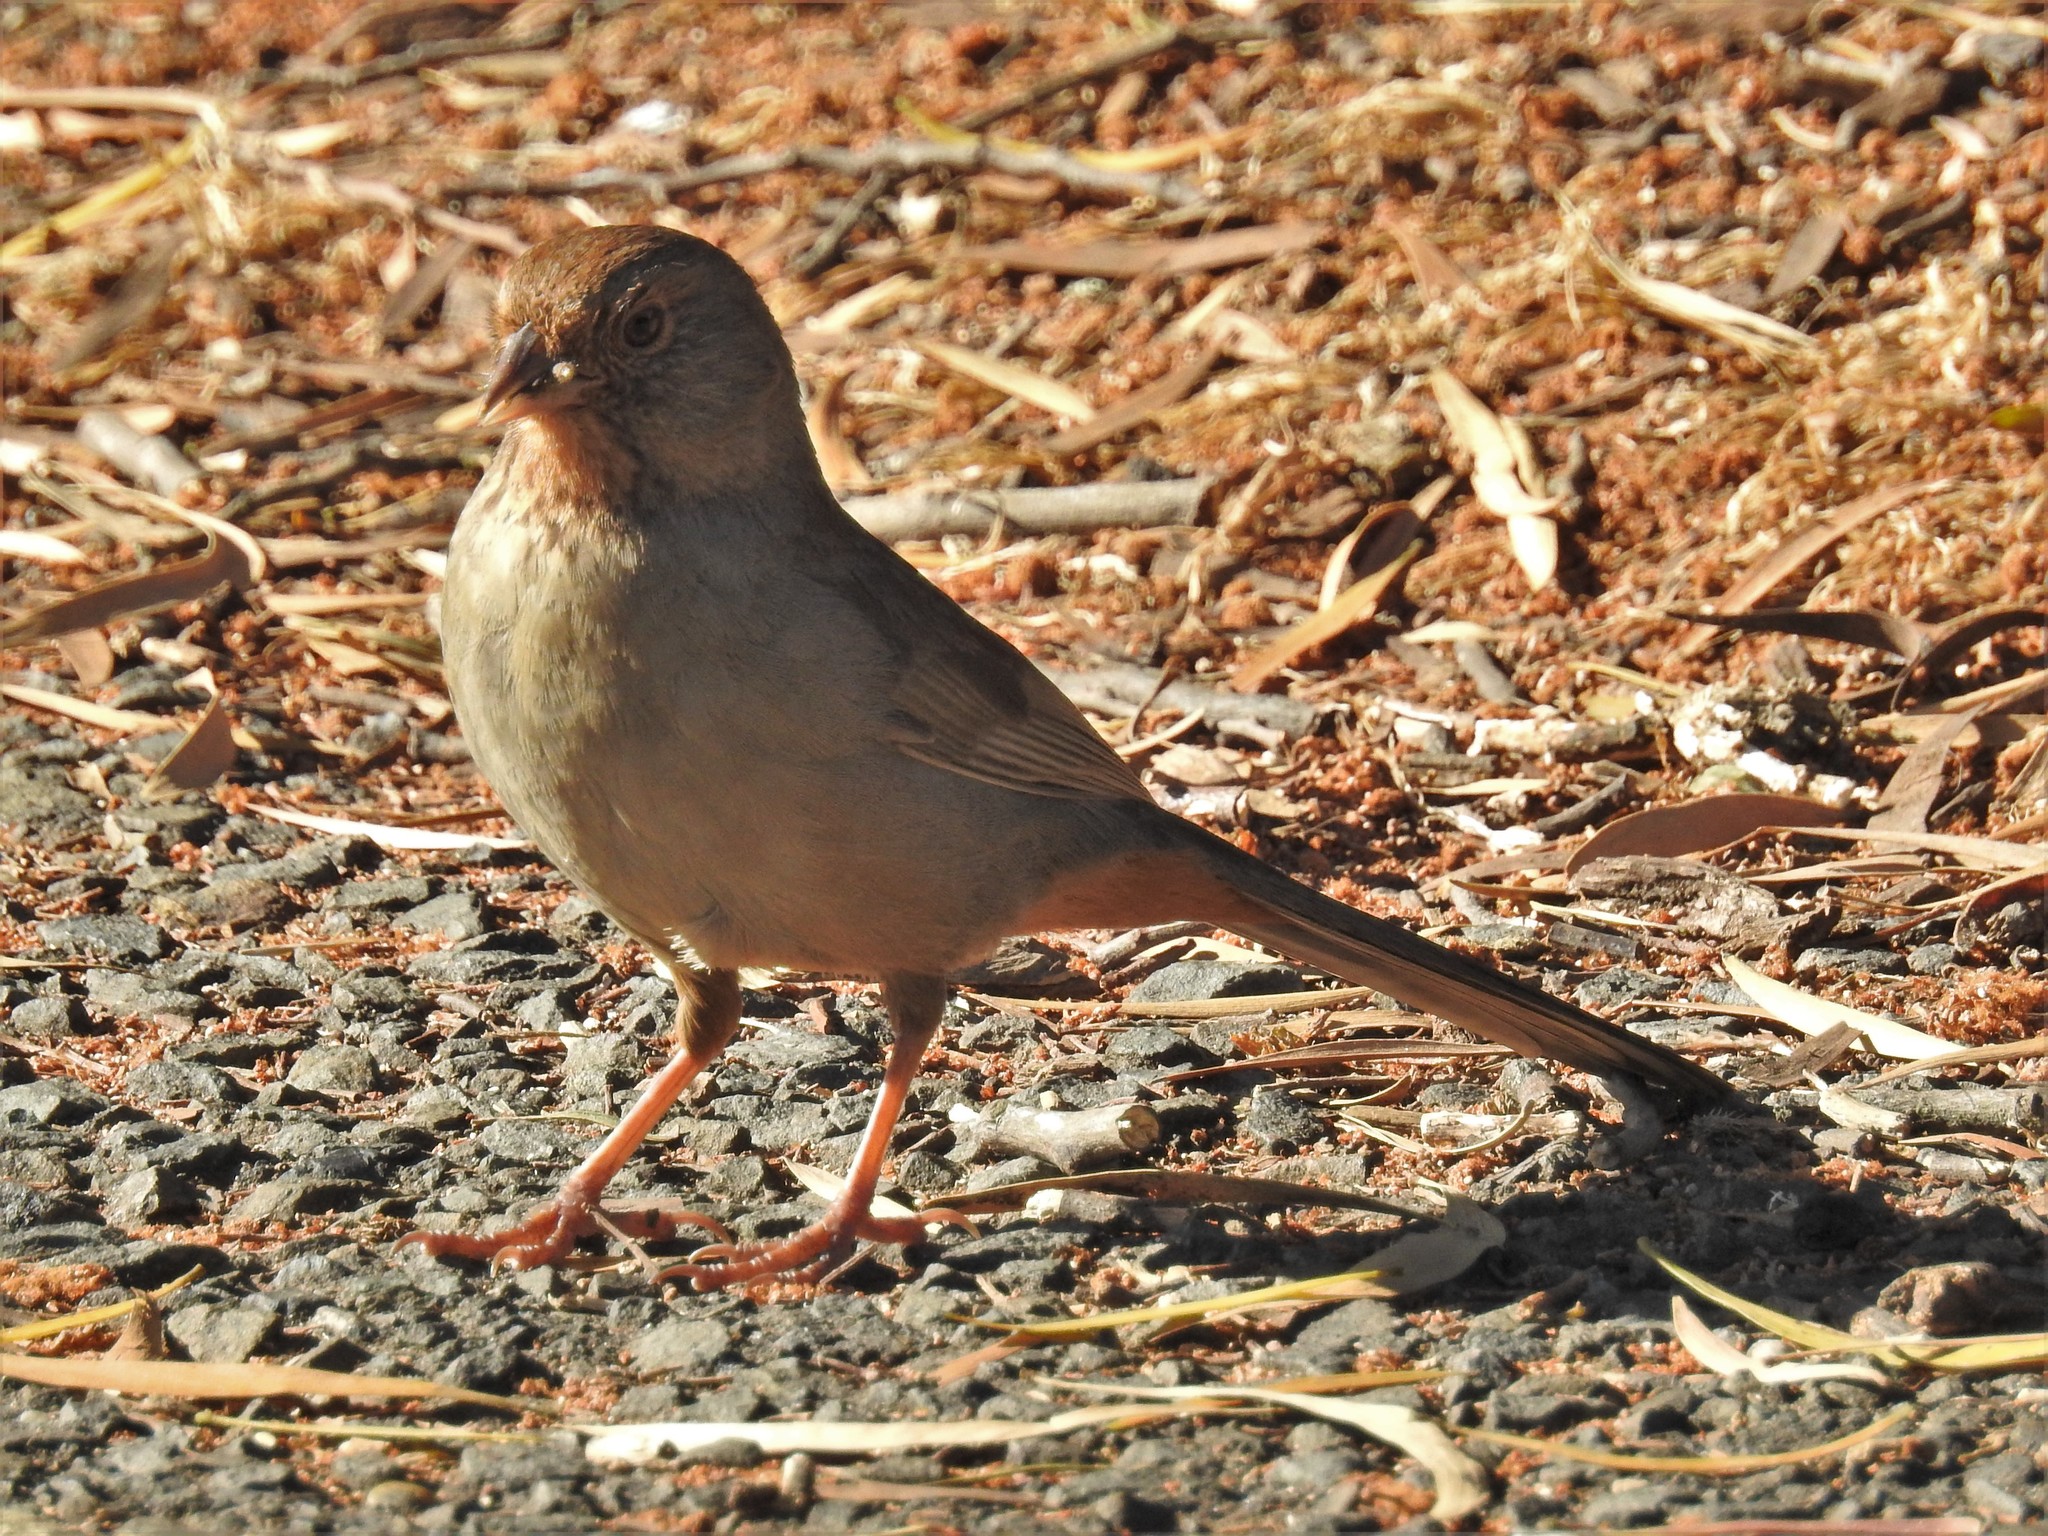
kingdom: Animalia
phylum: Chordata
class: Aves
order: Passeriformes
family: Passerellidae
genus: Melozone
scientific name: Melozone crissalis
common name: California towhee
